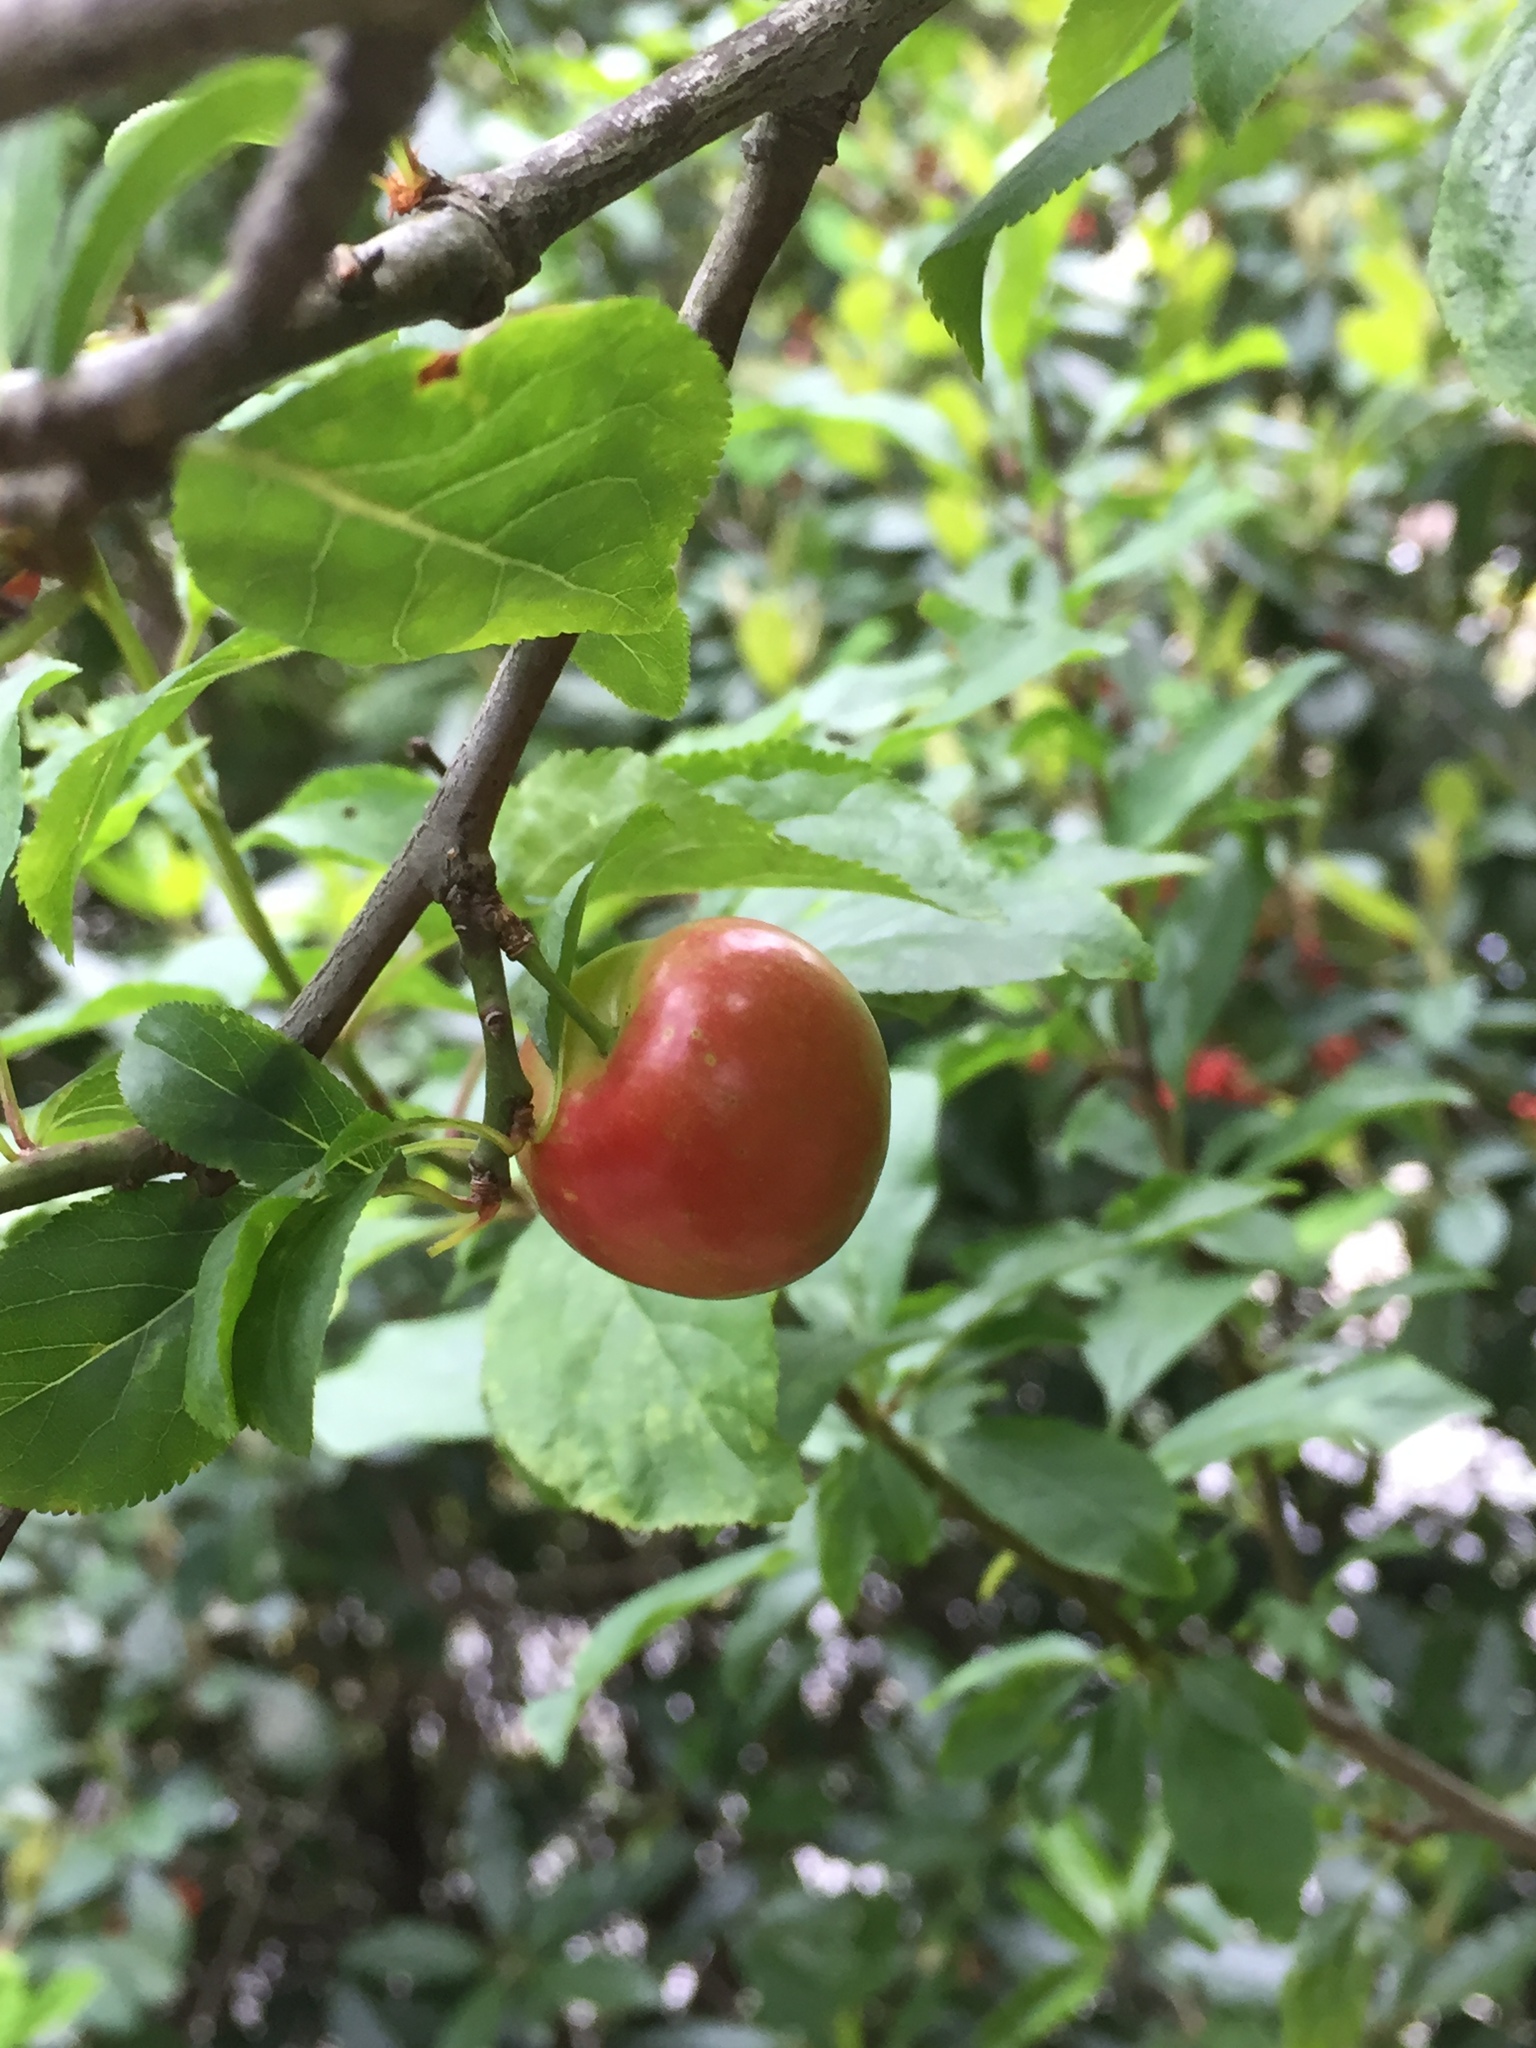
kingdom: Plantae
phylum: Tracheophyta
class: Magnoliopsida
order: Rosales
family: Rosaceae
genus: Prunus
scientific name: Prunus cerasifera
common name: Cherry plum
